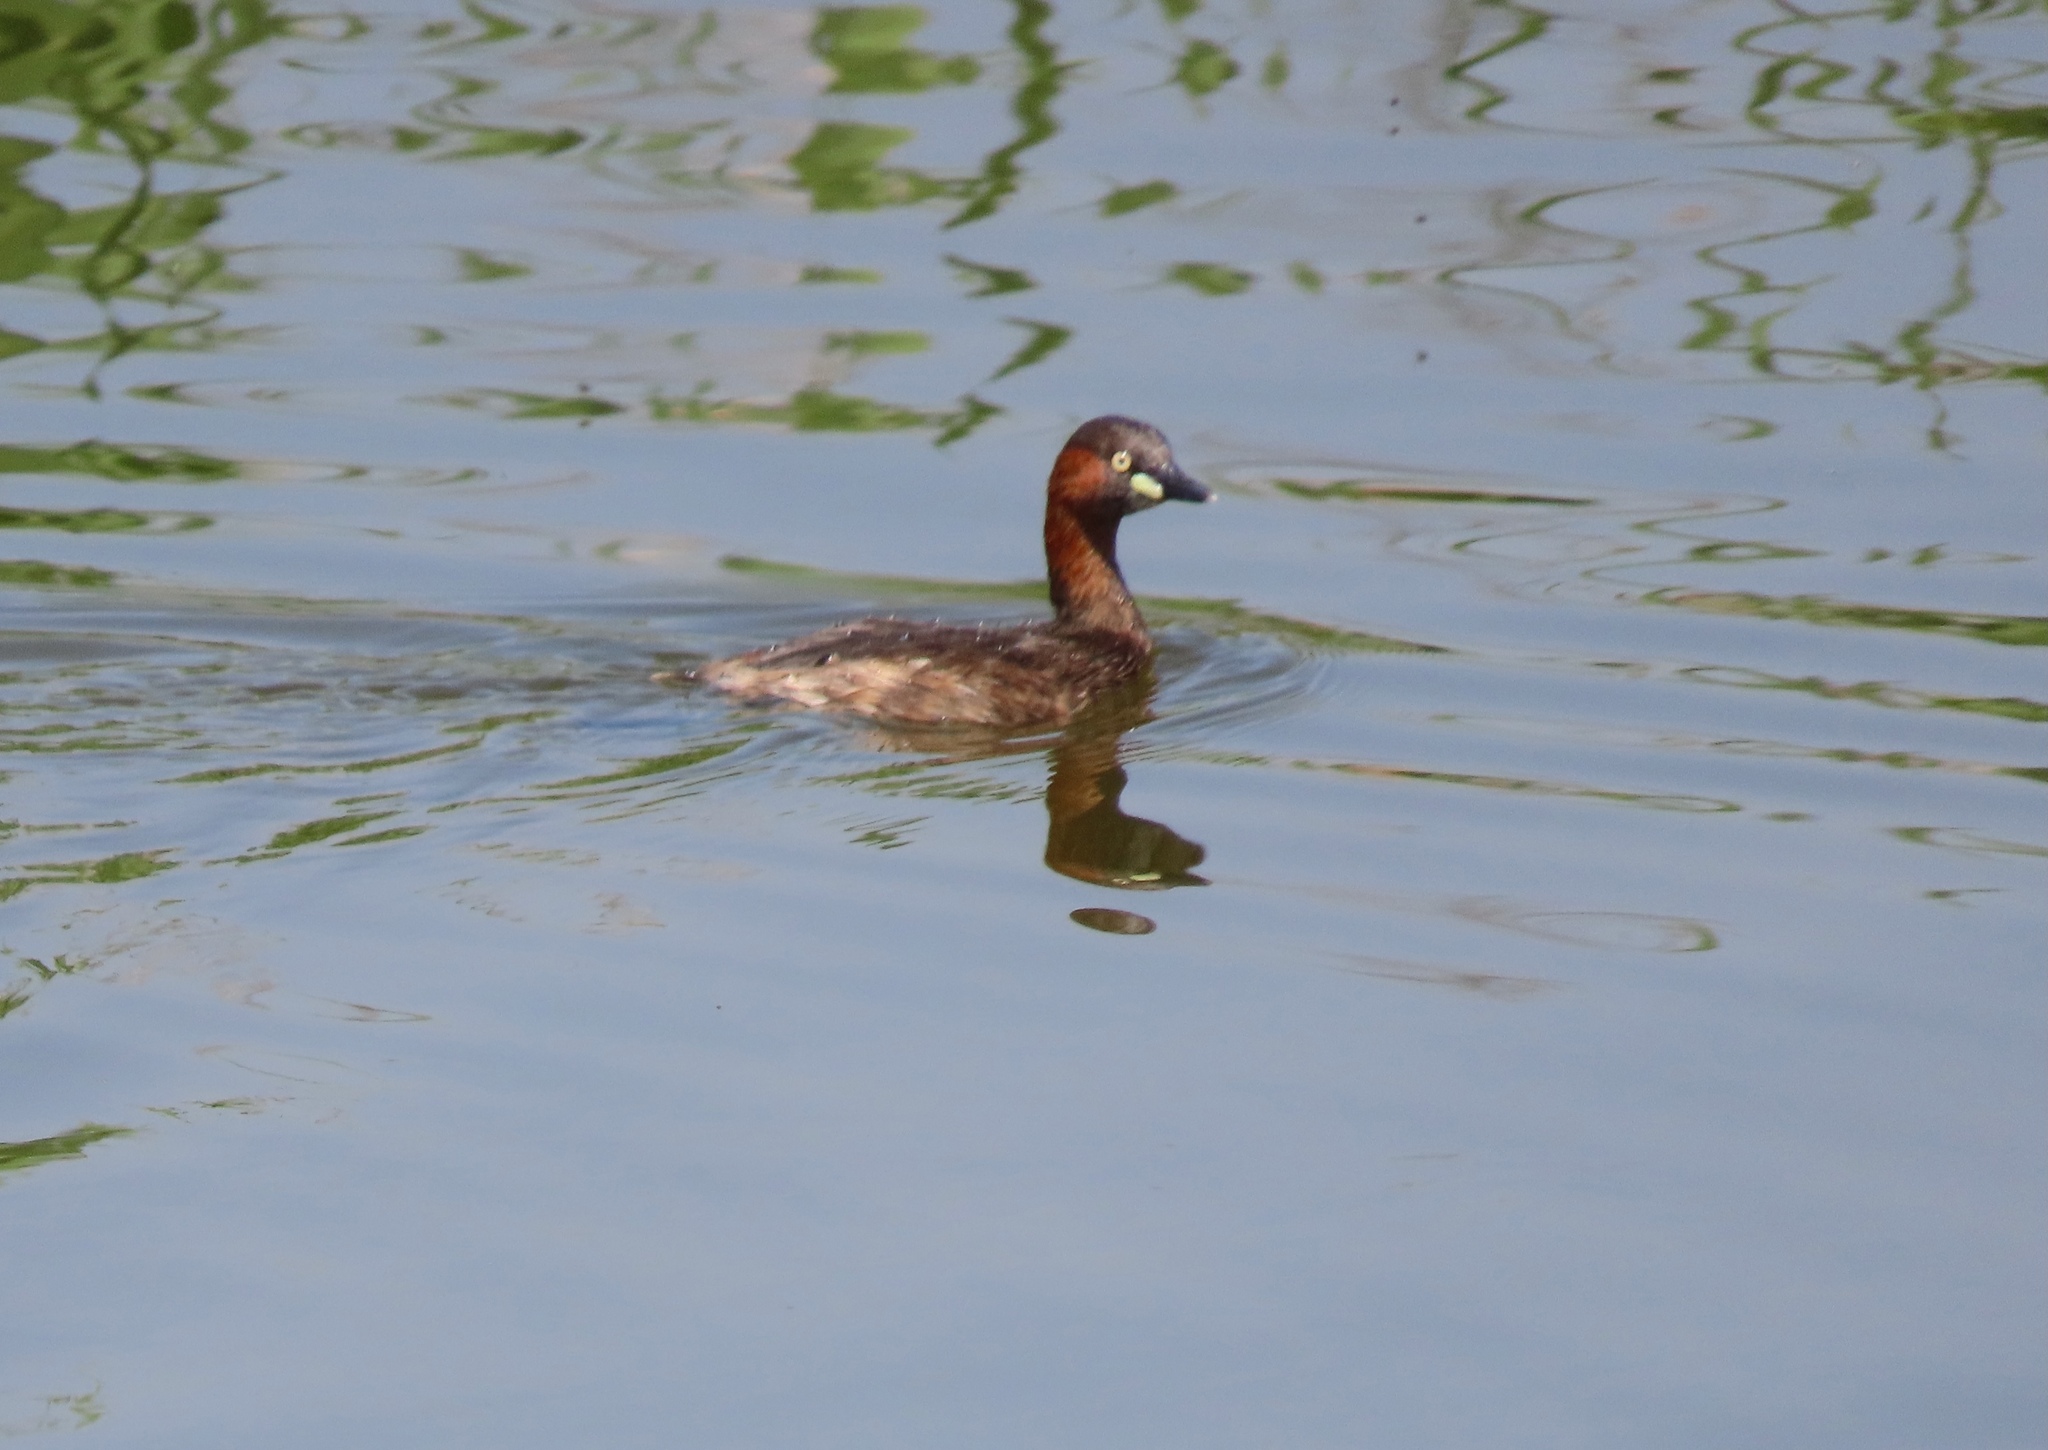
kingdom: Animalia
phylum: Chordata
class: Aves
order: Podicipediformes
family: Podicipedidae
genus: Tachybaptus
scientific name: Tachybaptus ruficollis
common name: Little grebe
